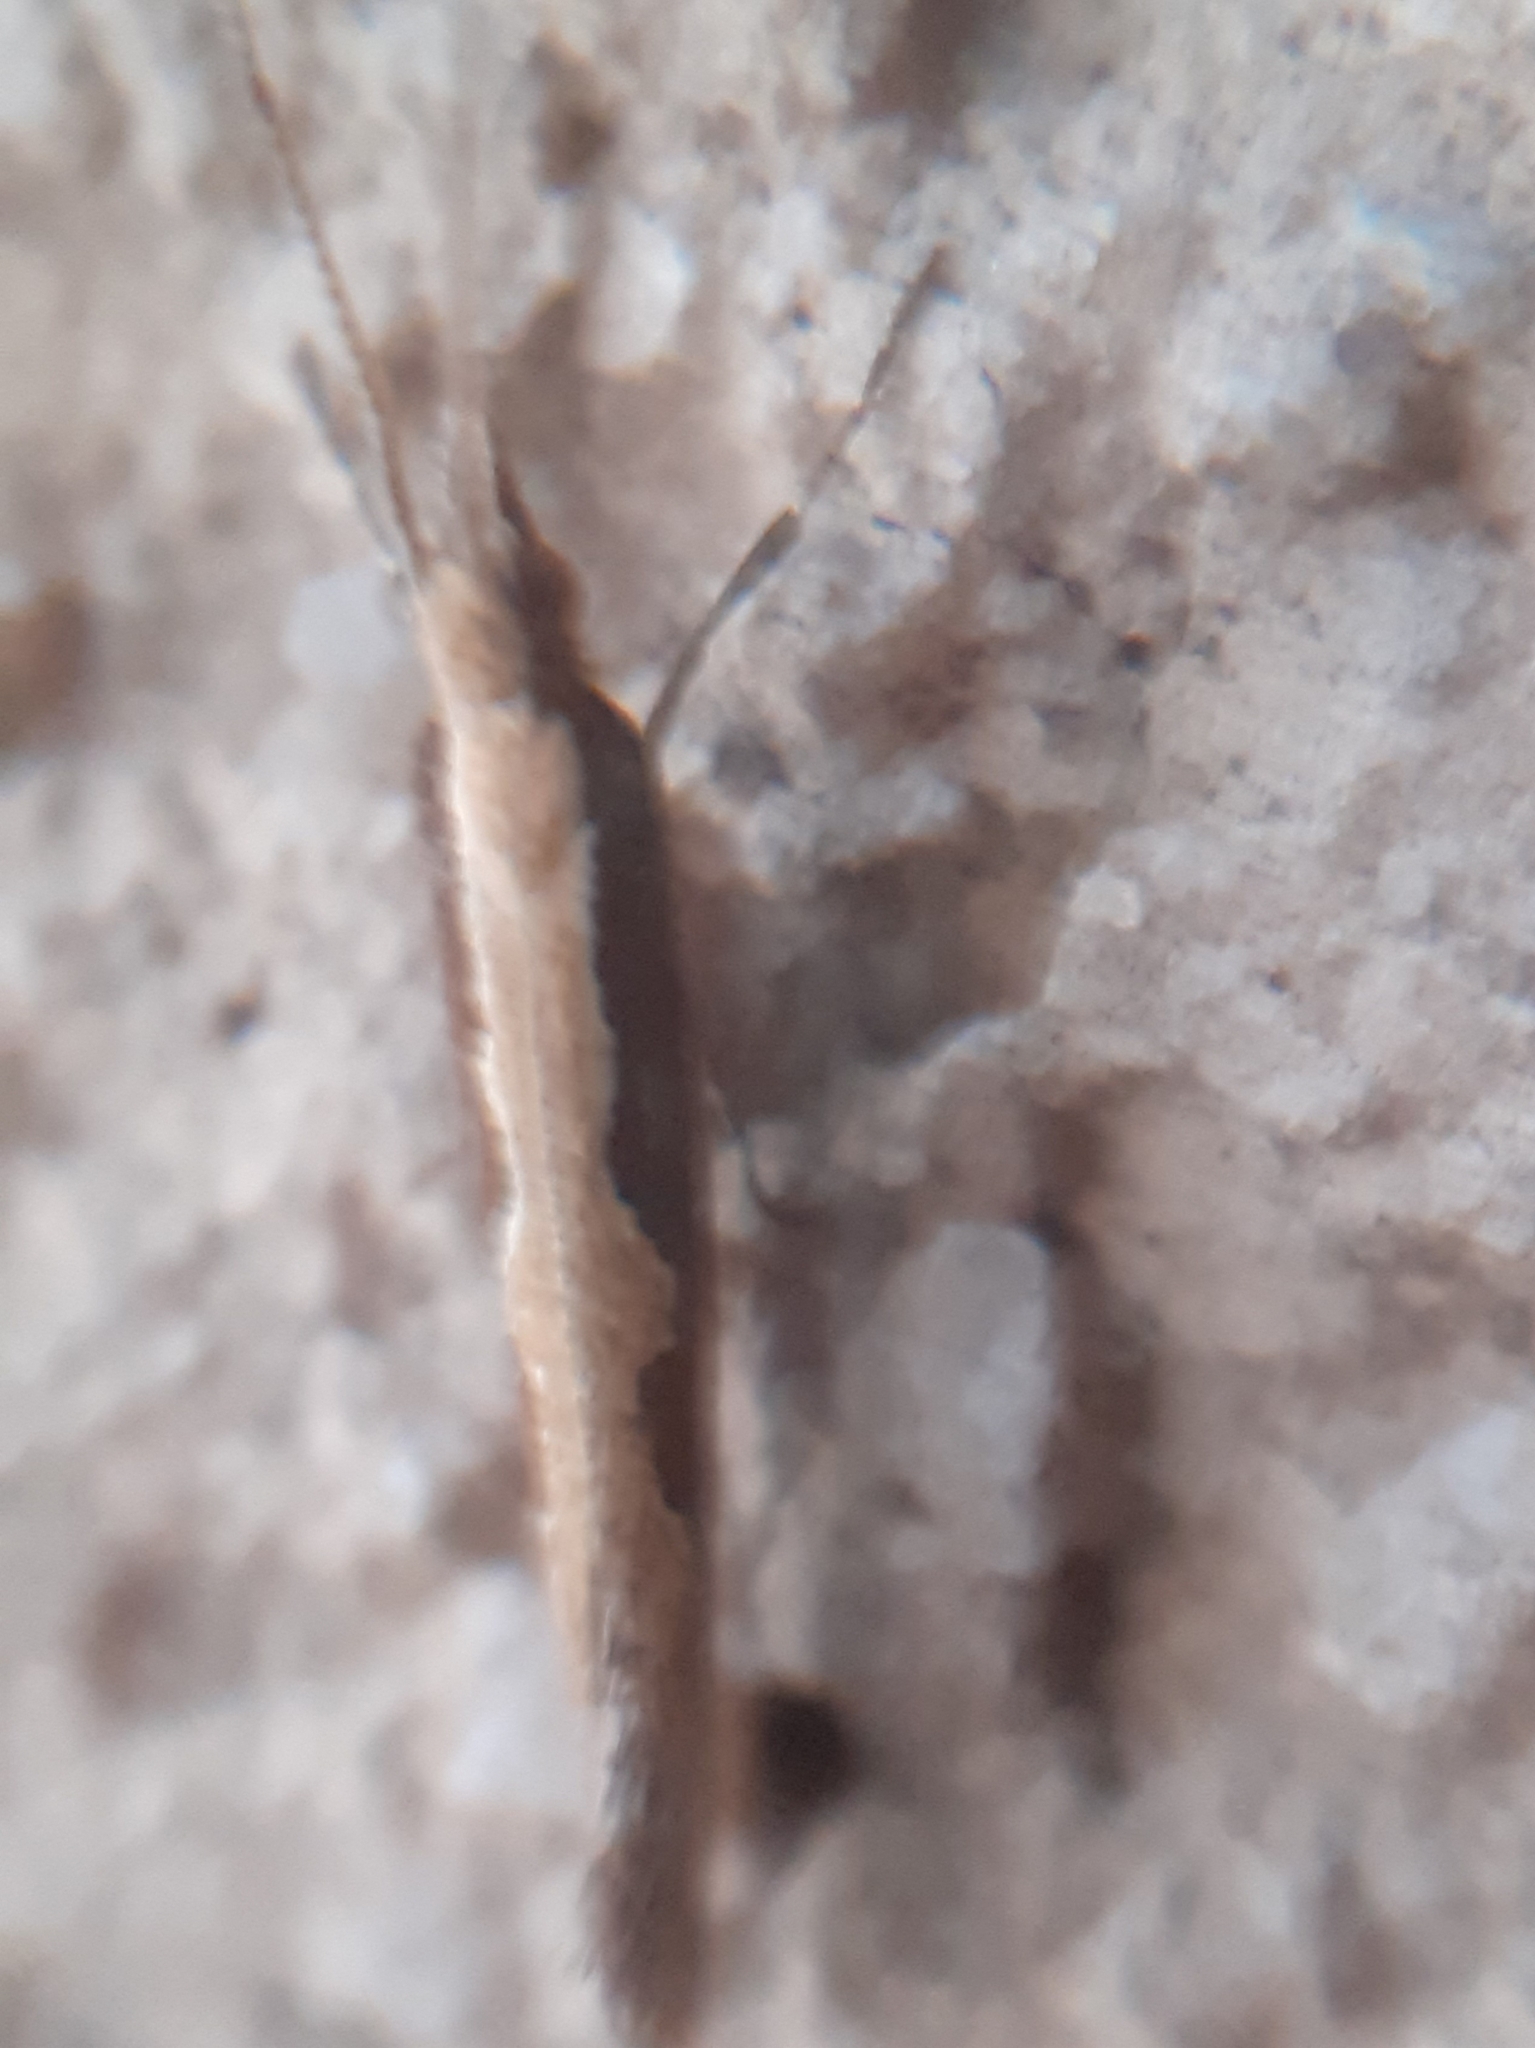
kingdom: Animalia
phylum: Arthropoda
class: Insecta
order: Lepidoptera
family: Plutellidae
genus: Plutella
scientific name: Plutella xylostella
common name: Diamond-back moth
